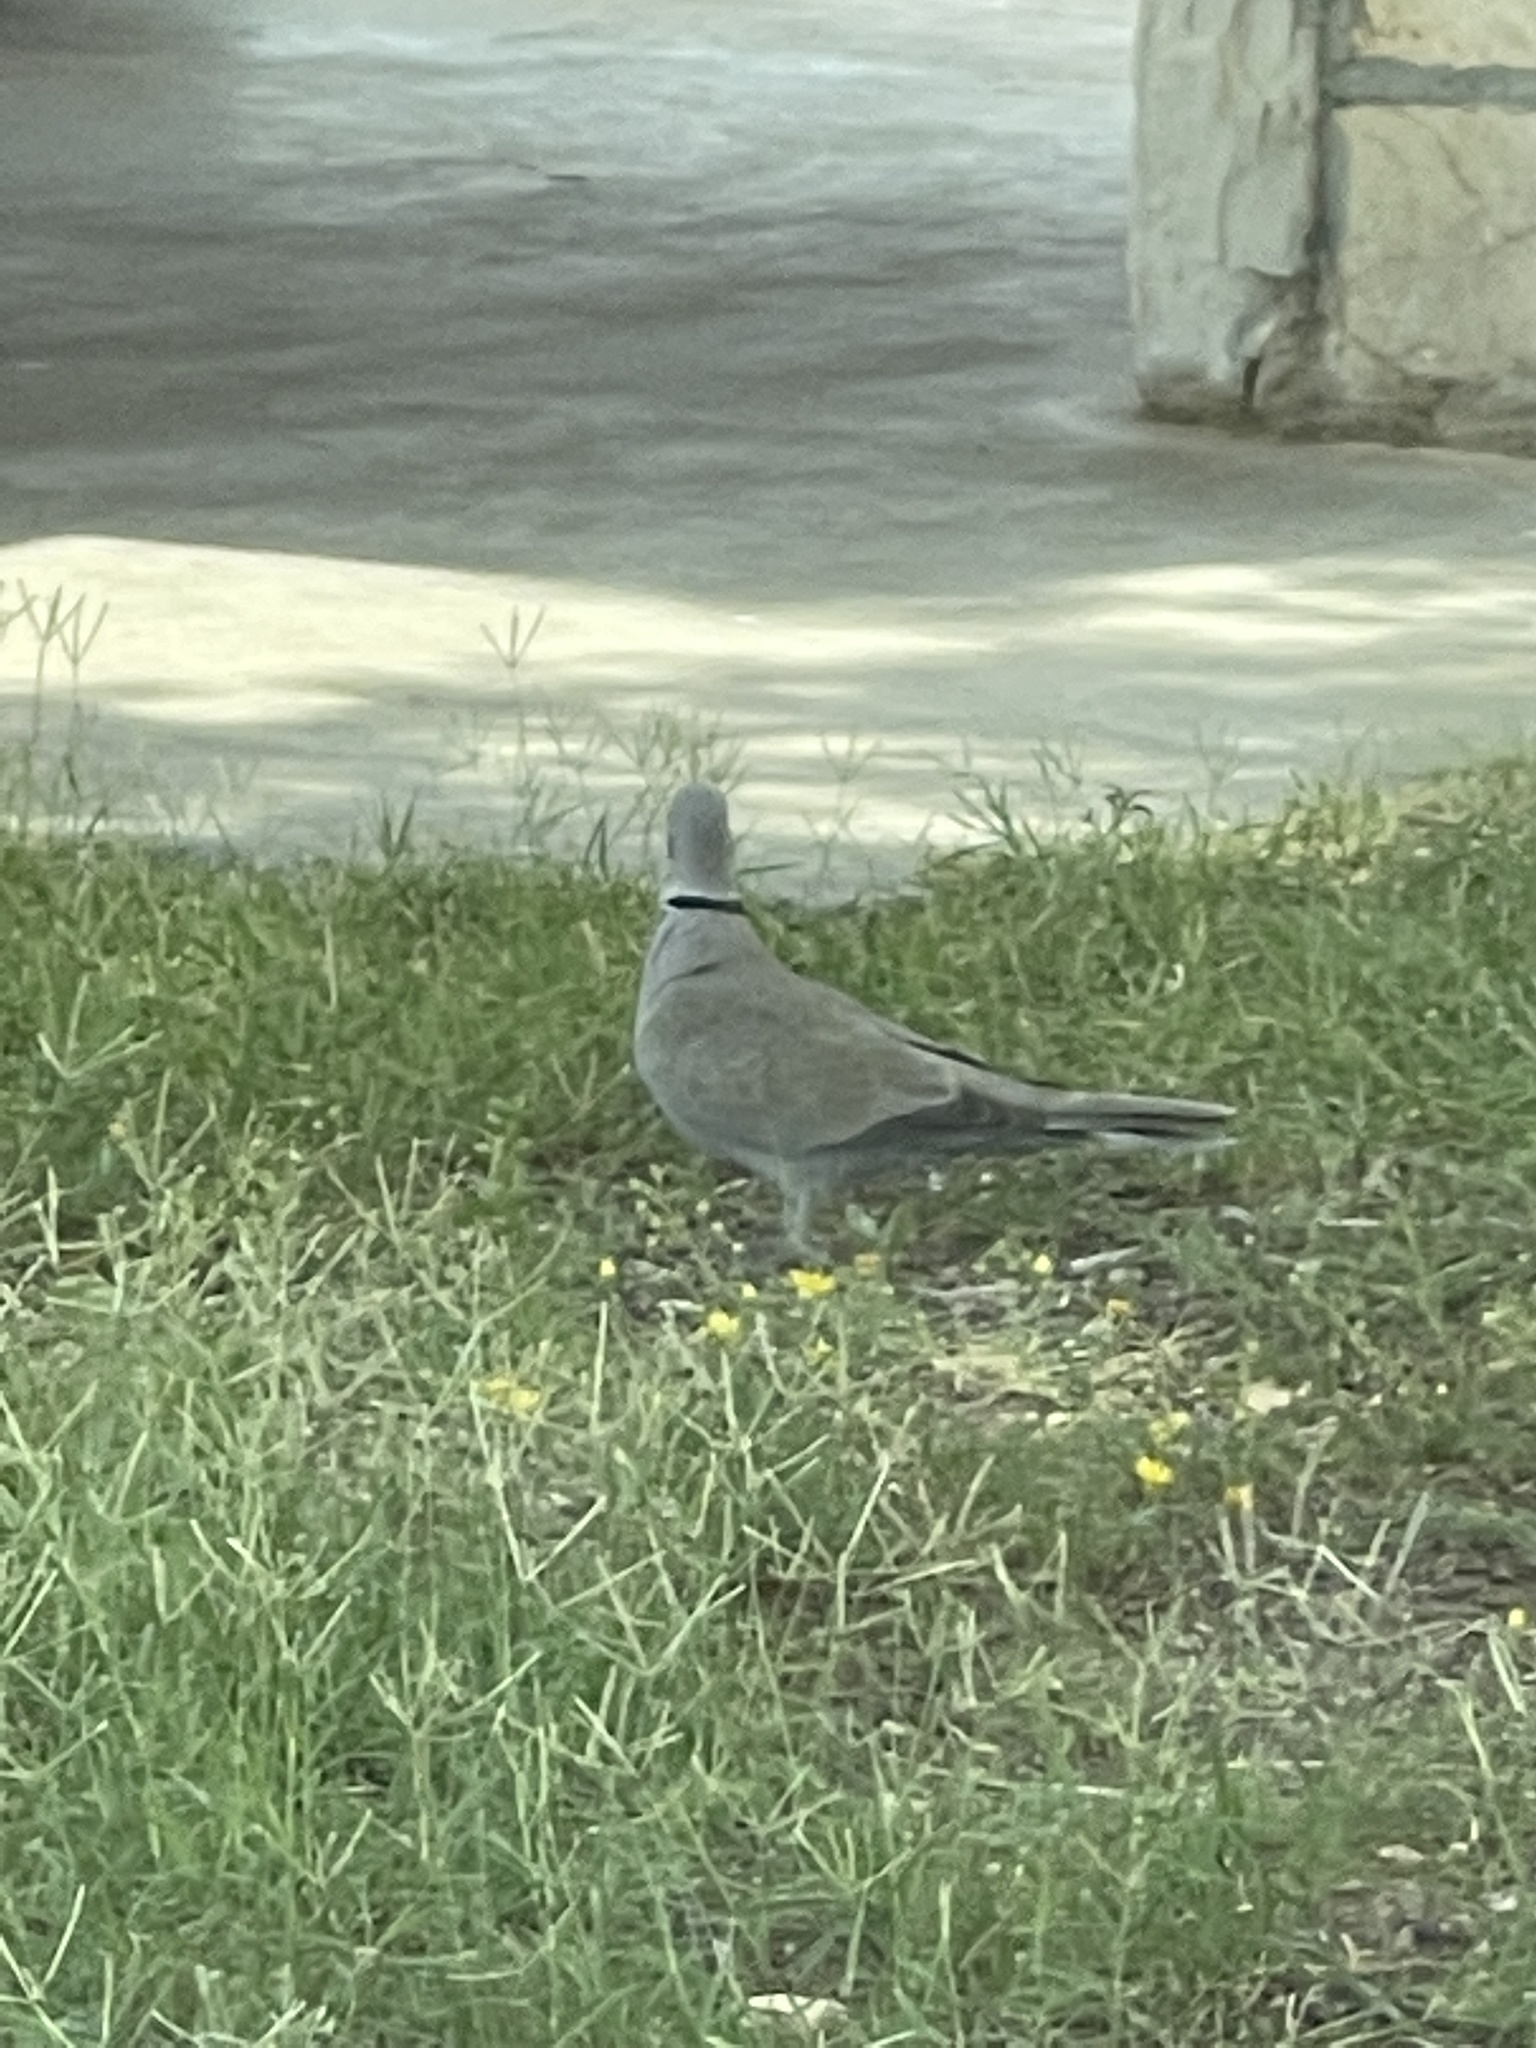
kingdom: Animalia
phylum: Chordata
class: Aves
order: Columbiformes
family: Columbidae
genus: Streptopelia
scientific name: Streptopelia decaocto
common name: Eurasian collared dove
